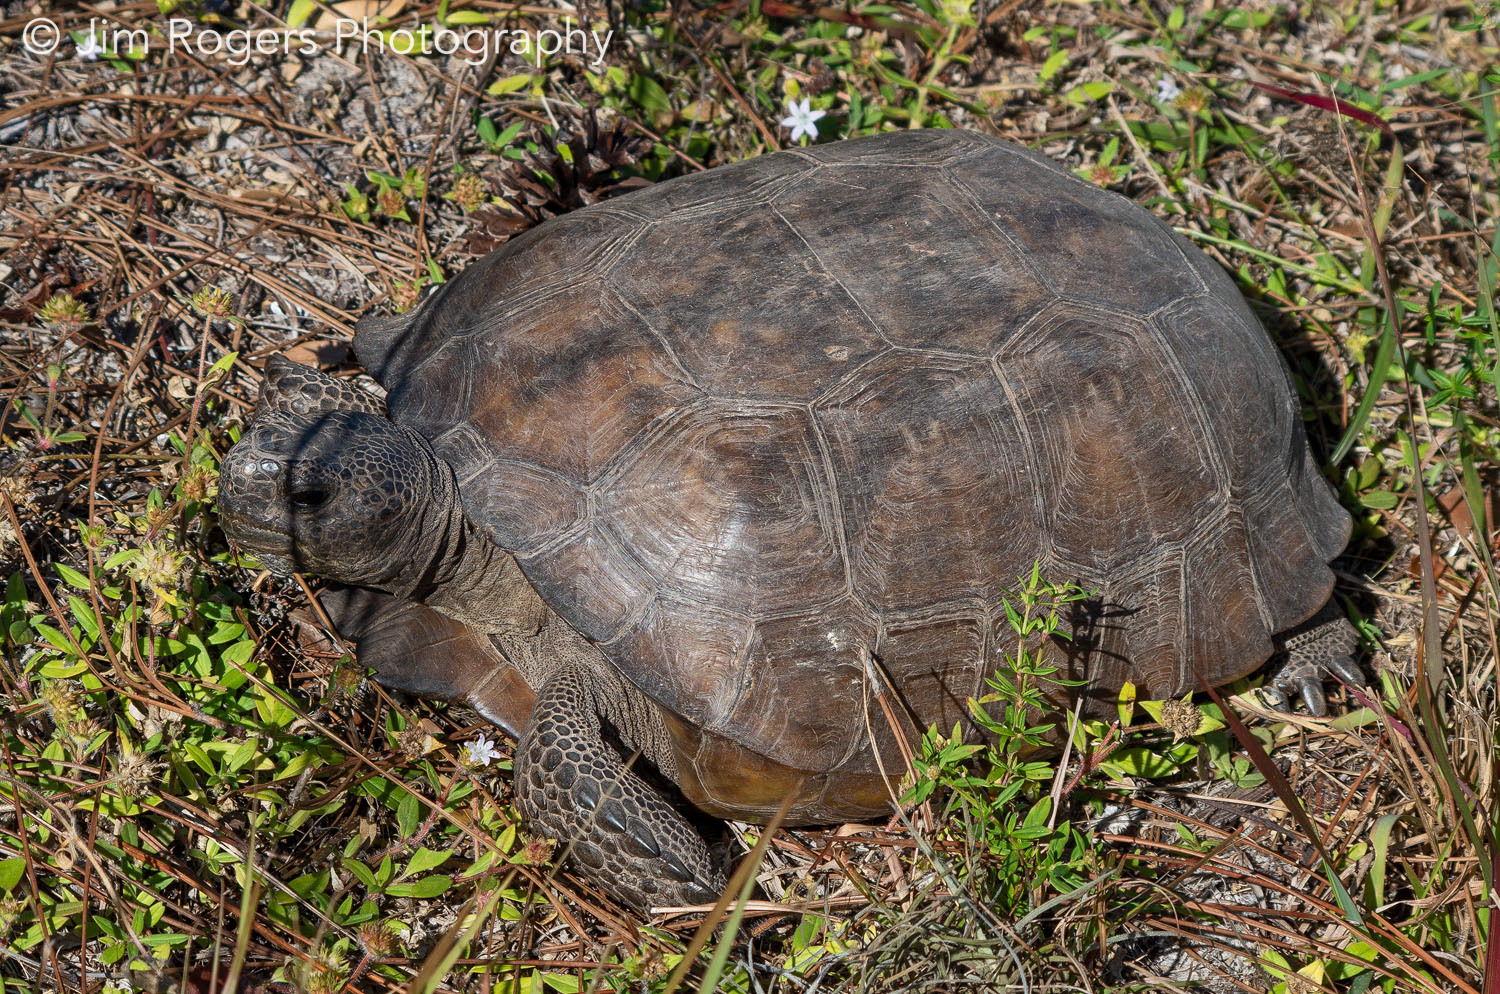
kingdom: Animalia
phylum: Chordata
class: Testudines
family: Testudinidae
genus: Gopherus
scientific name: Gopherus polyphemus
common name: Florida gopher tortoise
